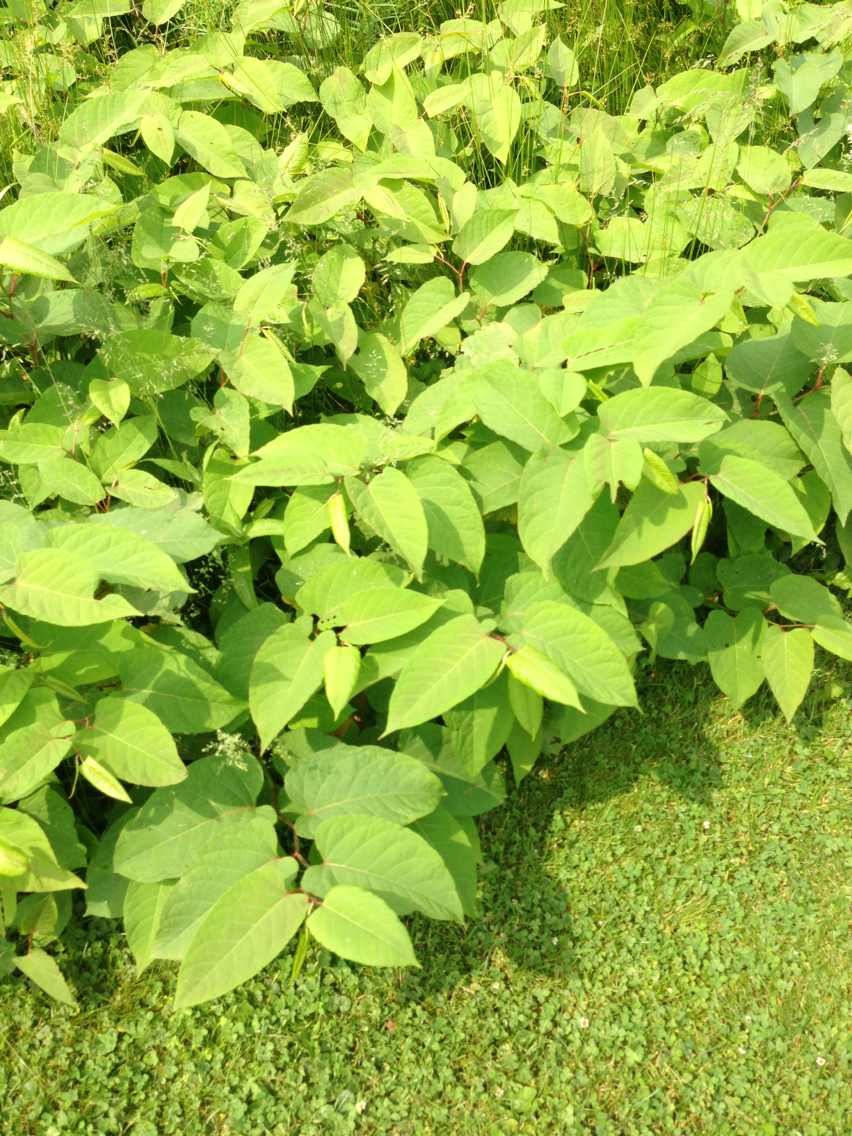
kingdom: Plantae
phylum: Tracheophyta
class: Magnoliopsida
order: Caryophyllales
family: Polygonaceae
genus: Reynoutria
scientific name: Reynoutria japonica
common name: Japanese knotweed
